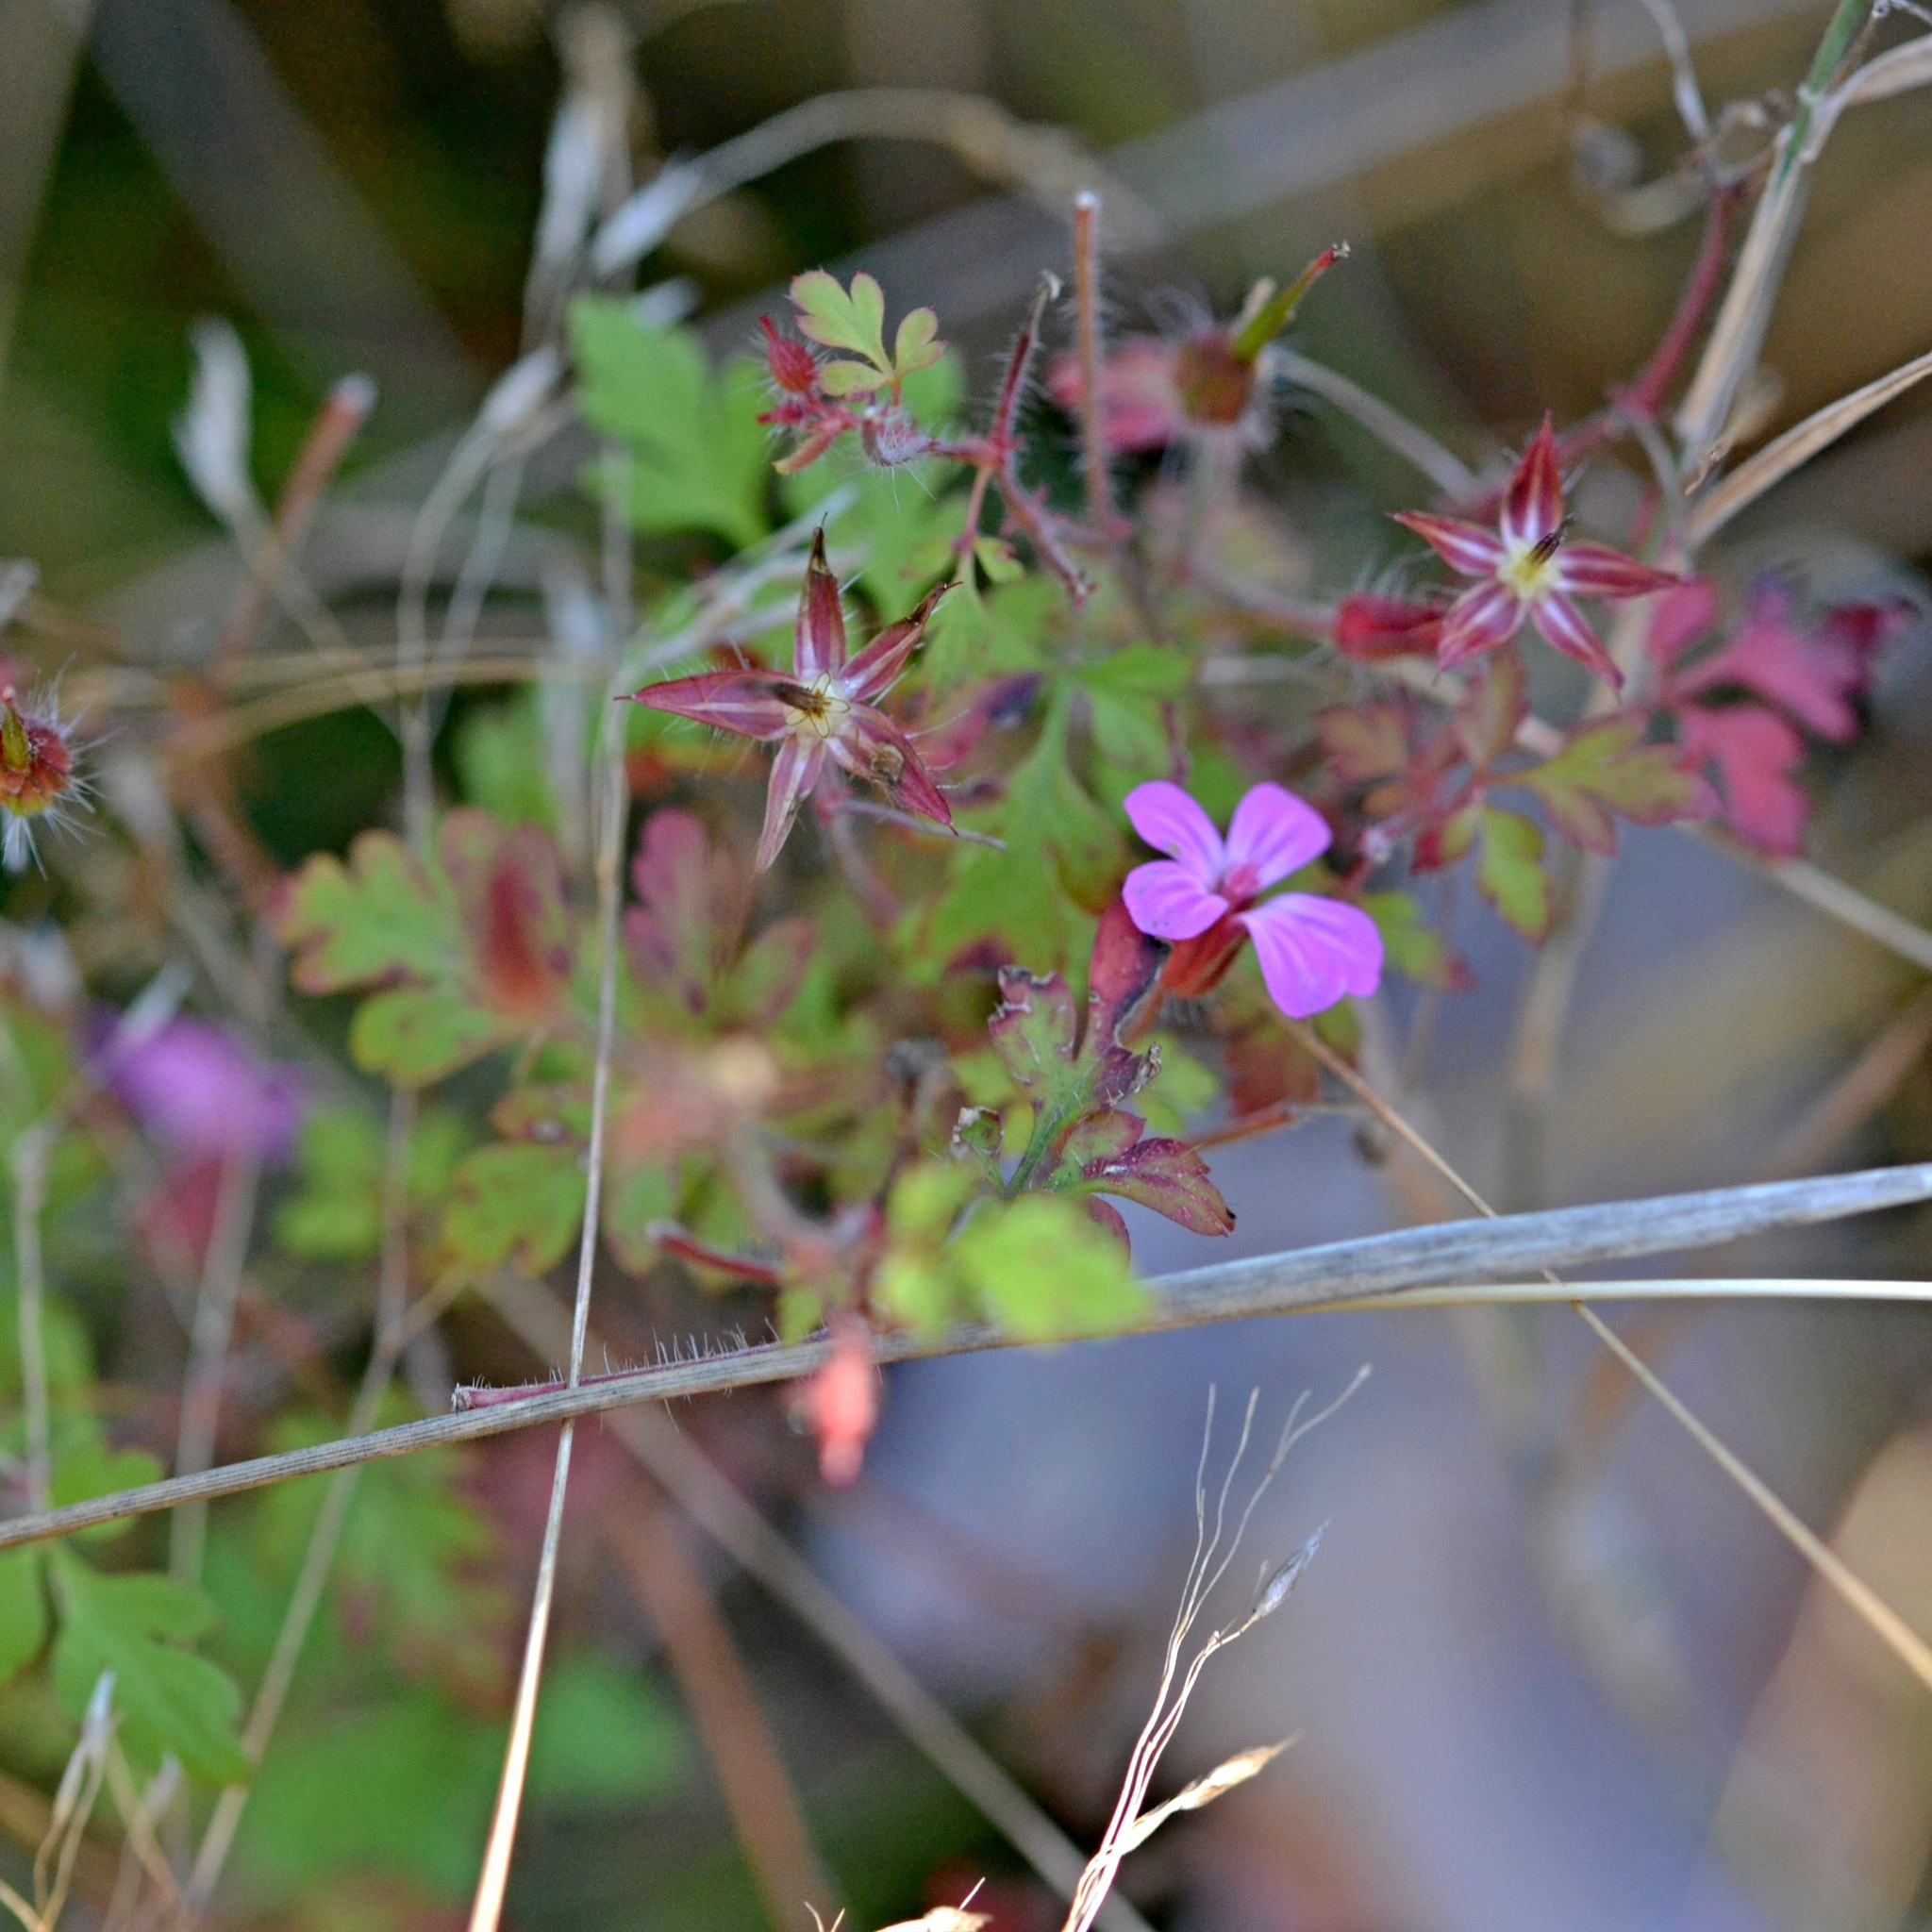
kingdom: Plantae
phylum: Tracheophyta
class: Magnoliopsida
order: Geraniales
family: Geraniaceae
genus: Geranium
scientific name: Geranium robertianum
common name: Herb-robert
